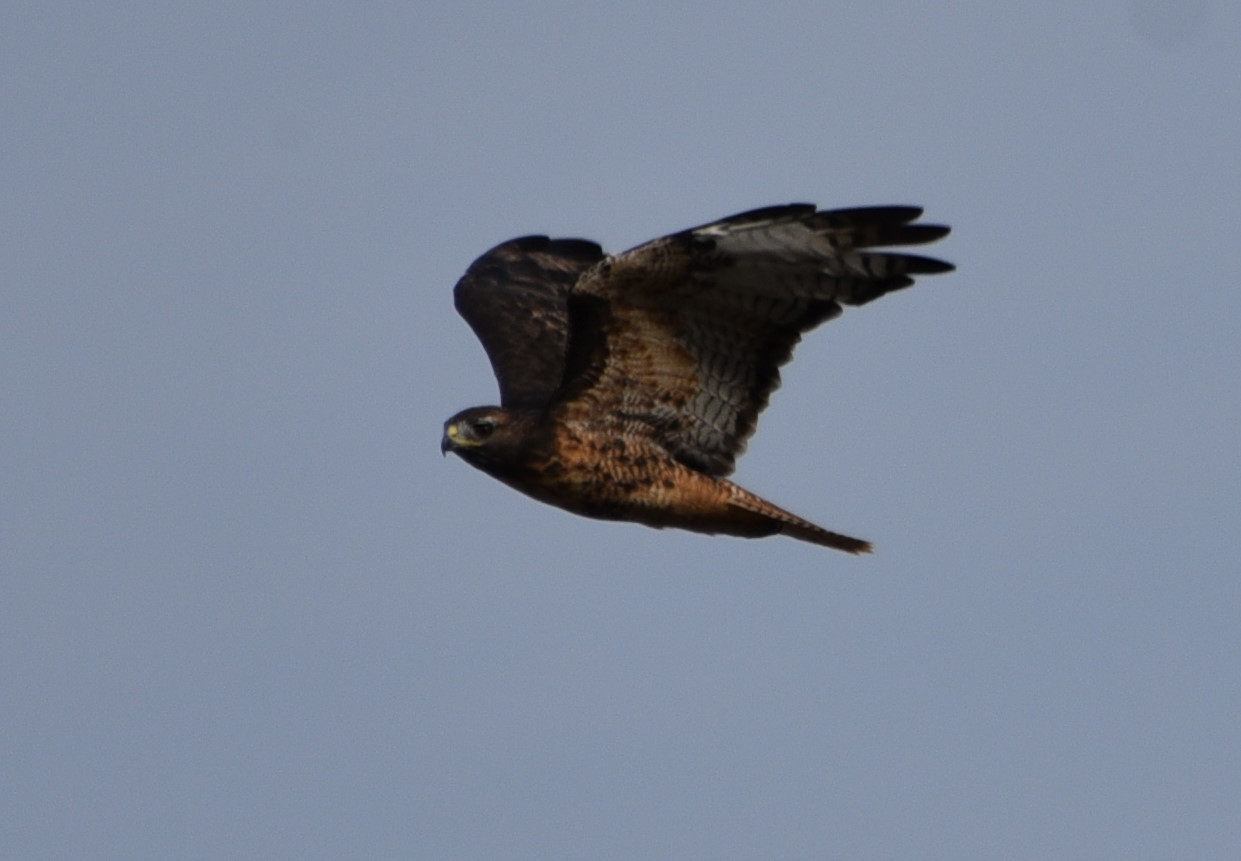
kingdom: Animalia
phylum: Chordata
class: Aves
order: Accipitriformes
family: Accipitridae
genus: Buteo
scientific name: Buteo jamaicensis
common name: Red-tailed hawk
